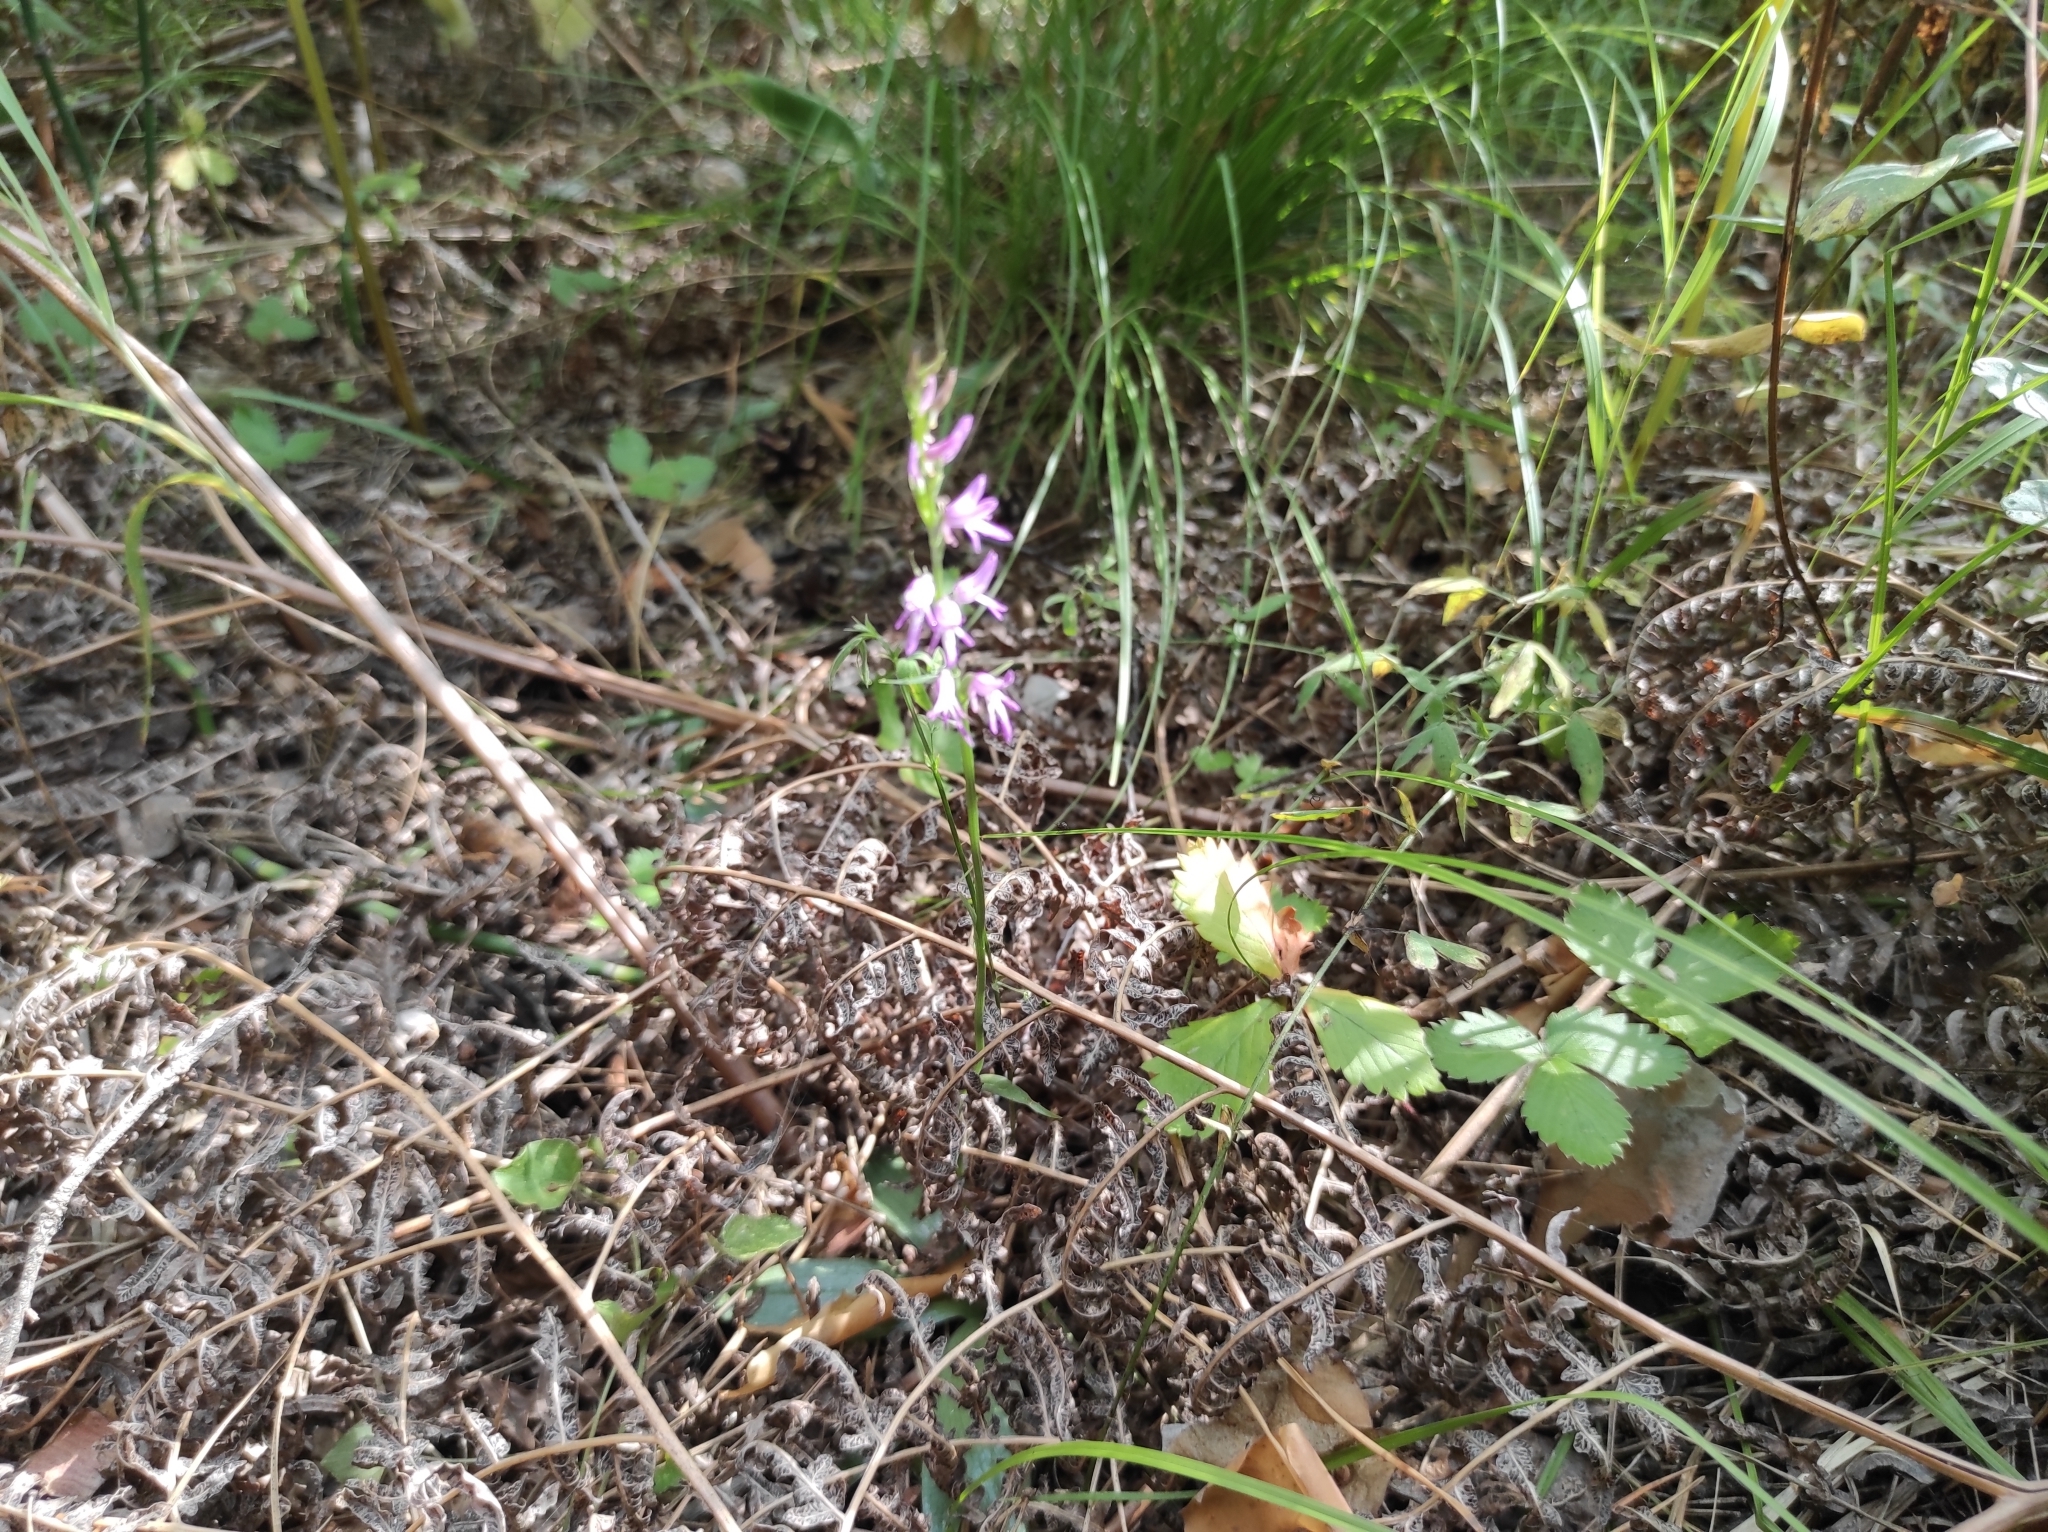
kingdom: Plantae
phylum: Tracheophyta
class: Liliopsida
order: Asparagales
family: Orchidaceae
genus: Hemipilia
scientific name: Hemipilia cucullata
